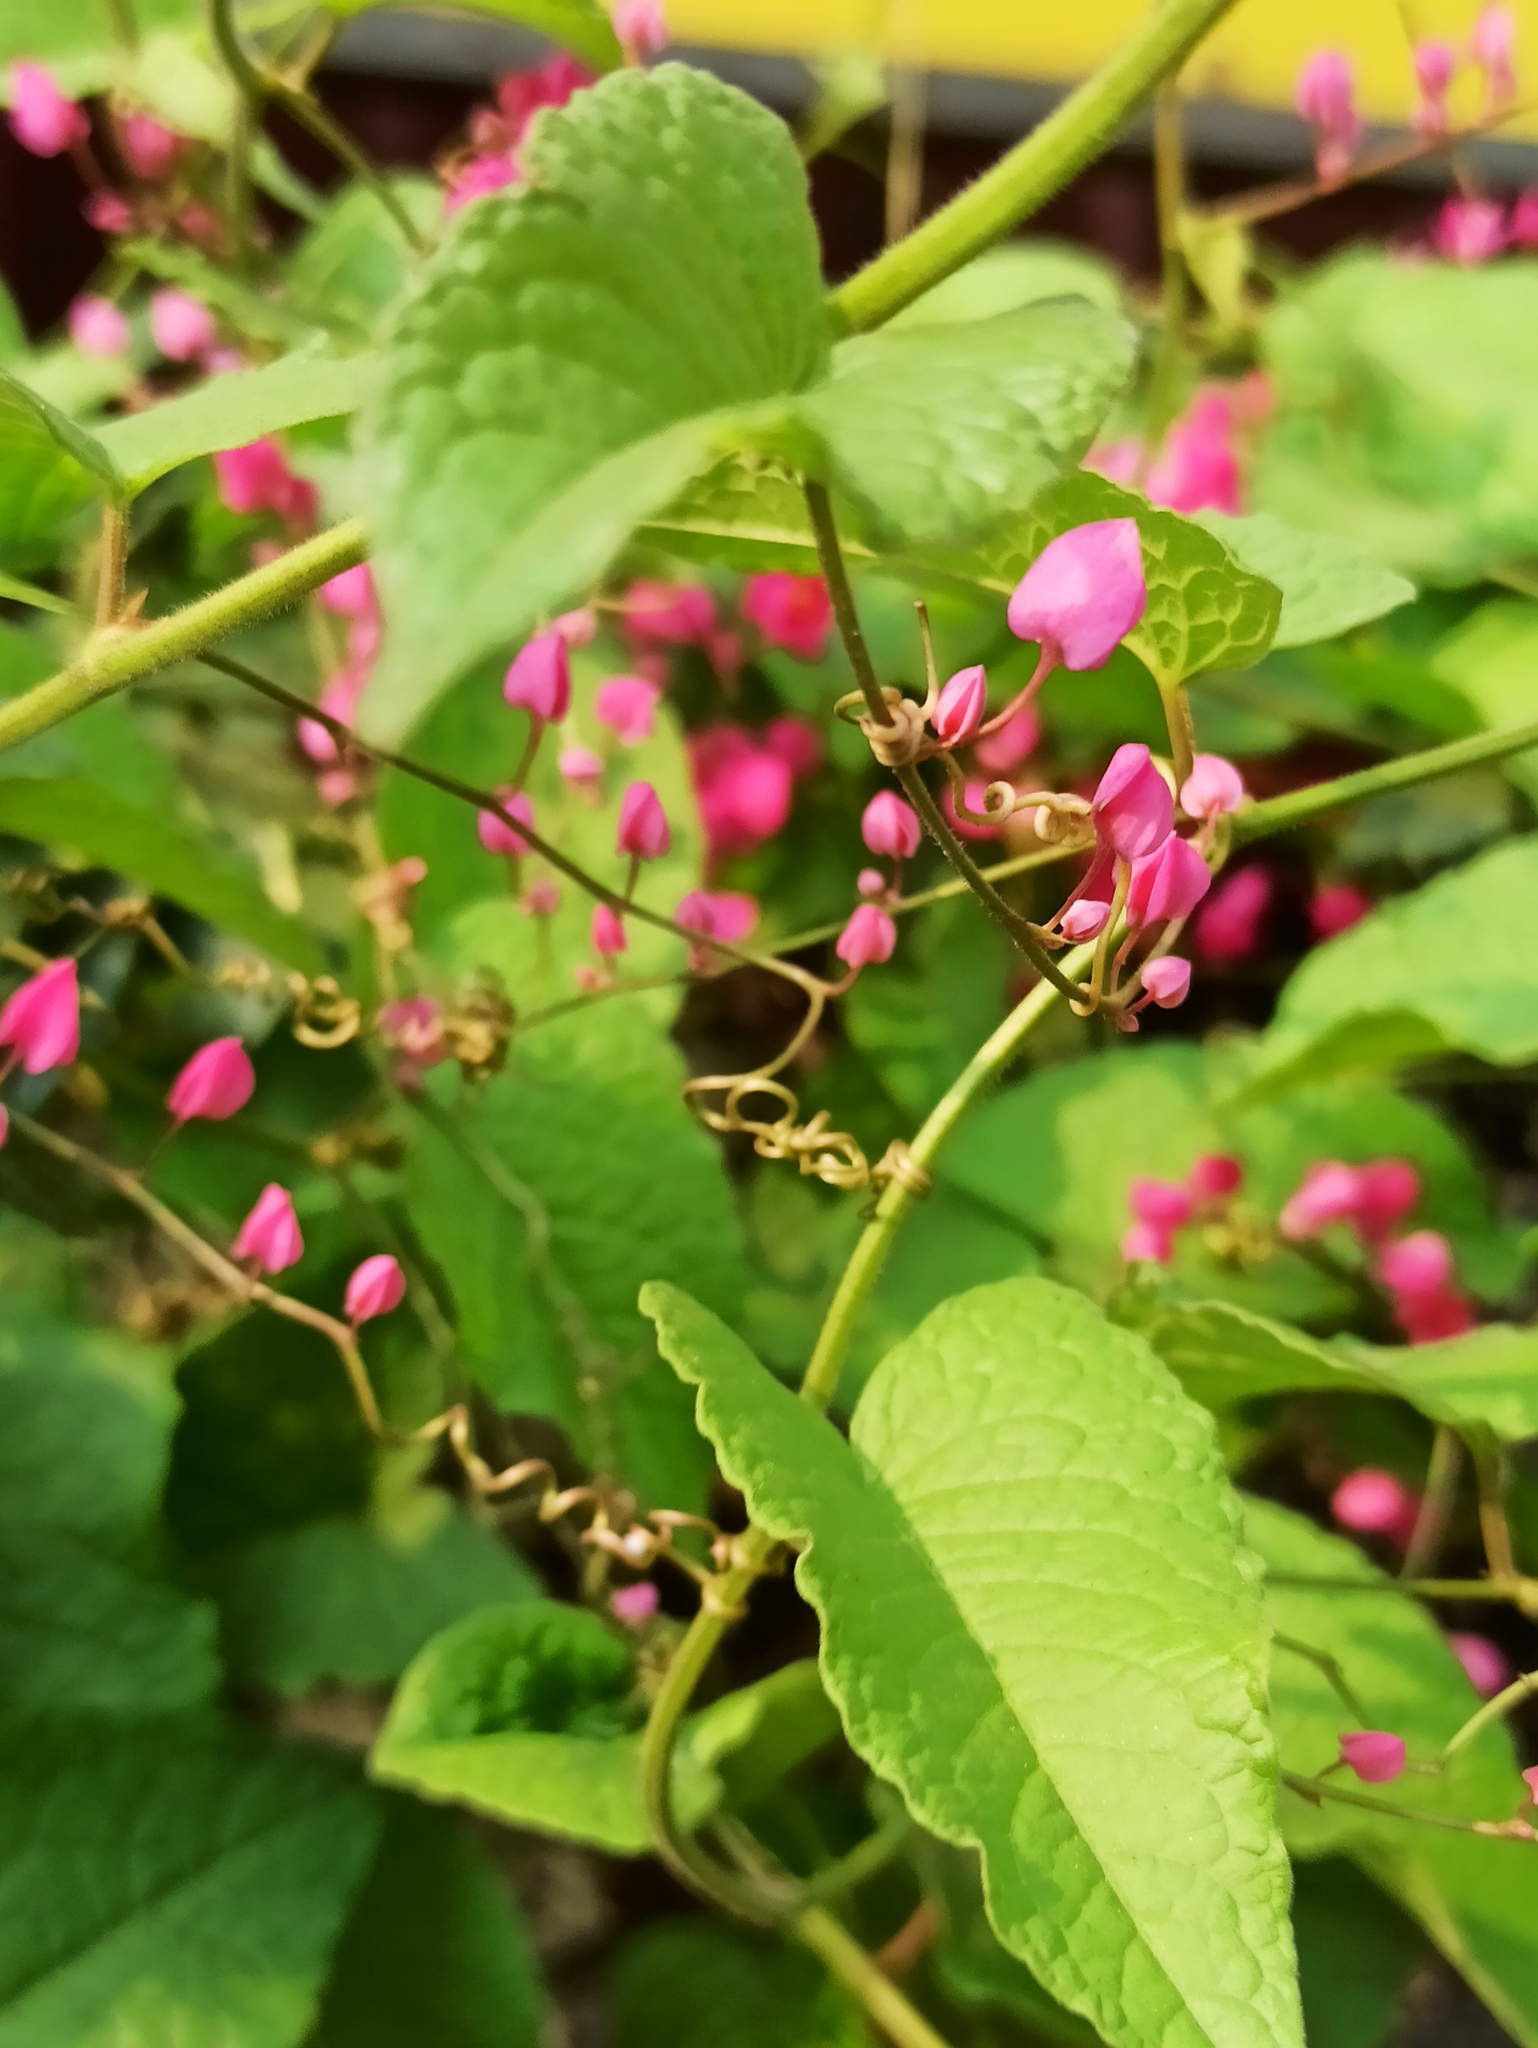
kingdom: Plantae
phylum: Tracheophyta
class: Magnoliopsida
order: Caryophyllales
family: Polygonaceae
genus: Antigonon
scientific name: Antigonon leptopus
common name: Coral vine
